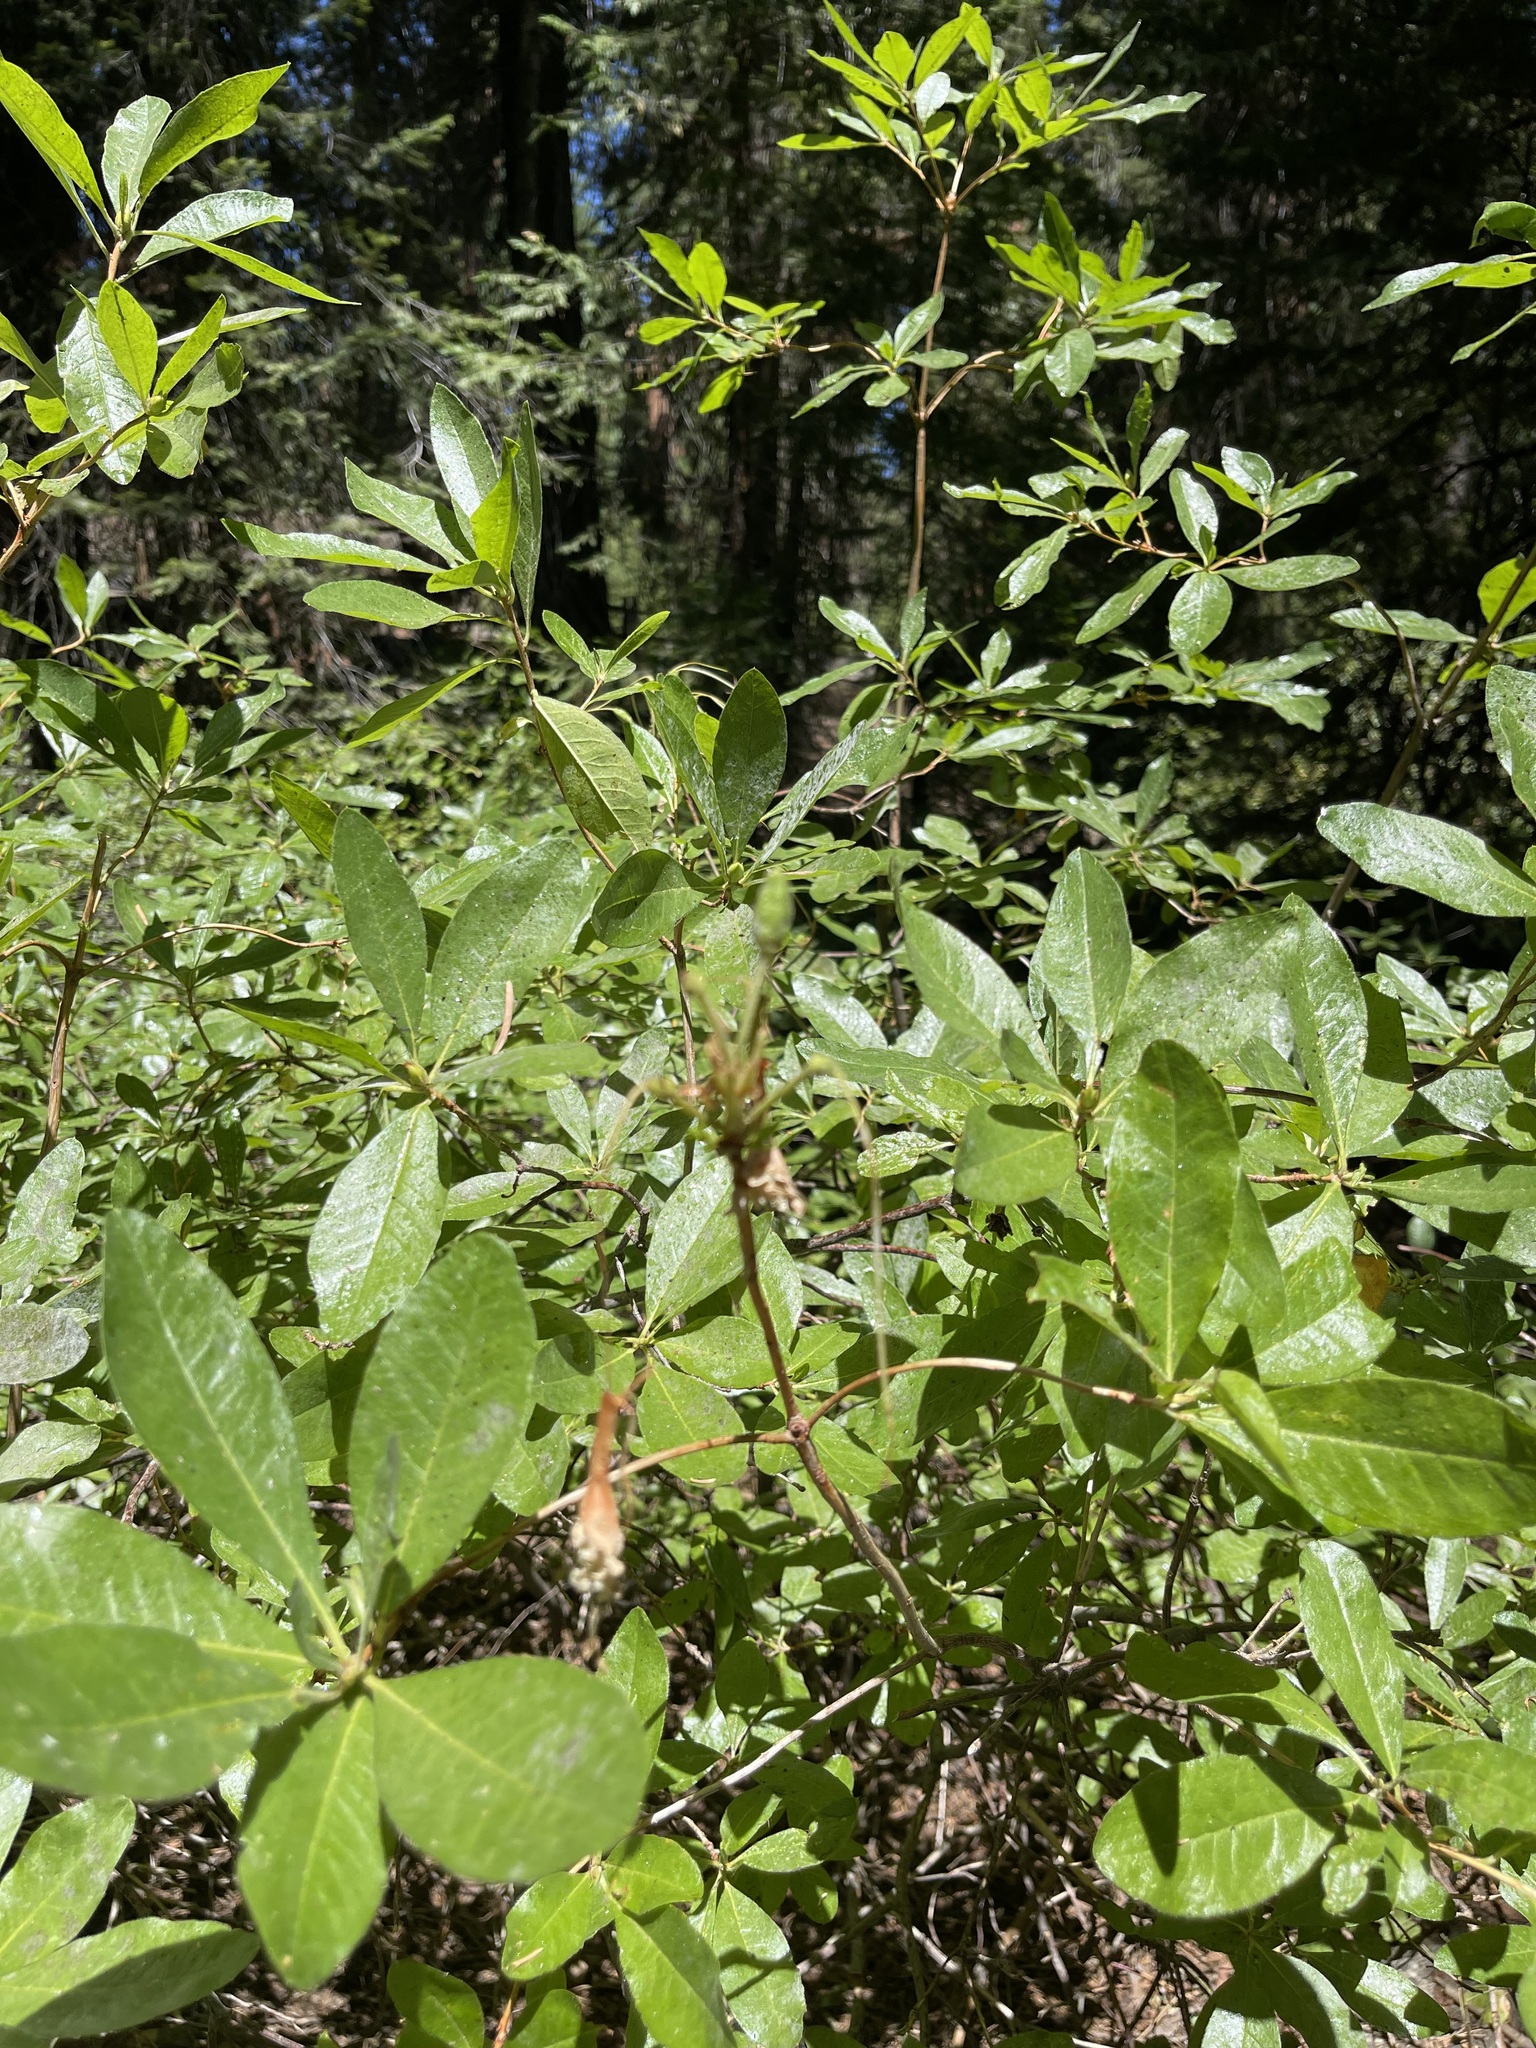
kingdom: Plantae
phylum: Tracheophyta
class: Magnoliopsida
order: Ericales
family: Ericaceae
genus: Rhododendron
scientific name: Rhododendron occidentale
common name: Western azalea
